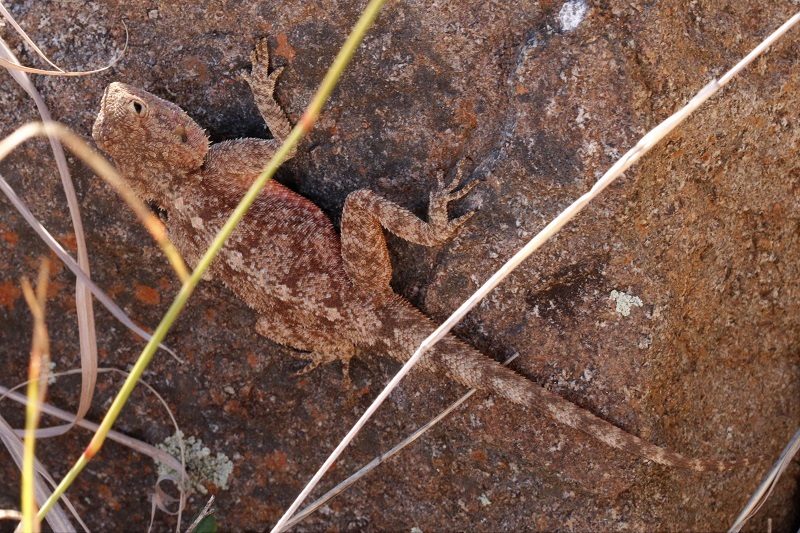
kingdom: Animalia
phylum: Chordata
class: Squamata
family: Agamidae
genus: Agama
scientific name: Agama atra
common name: Southern african rock agama
